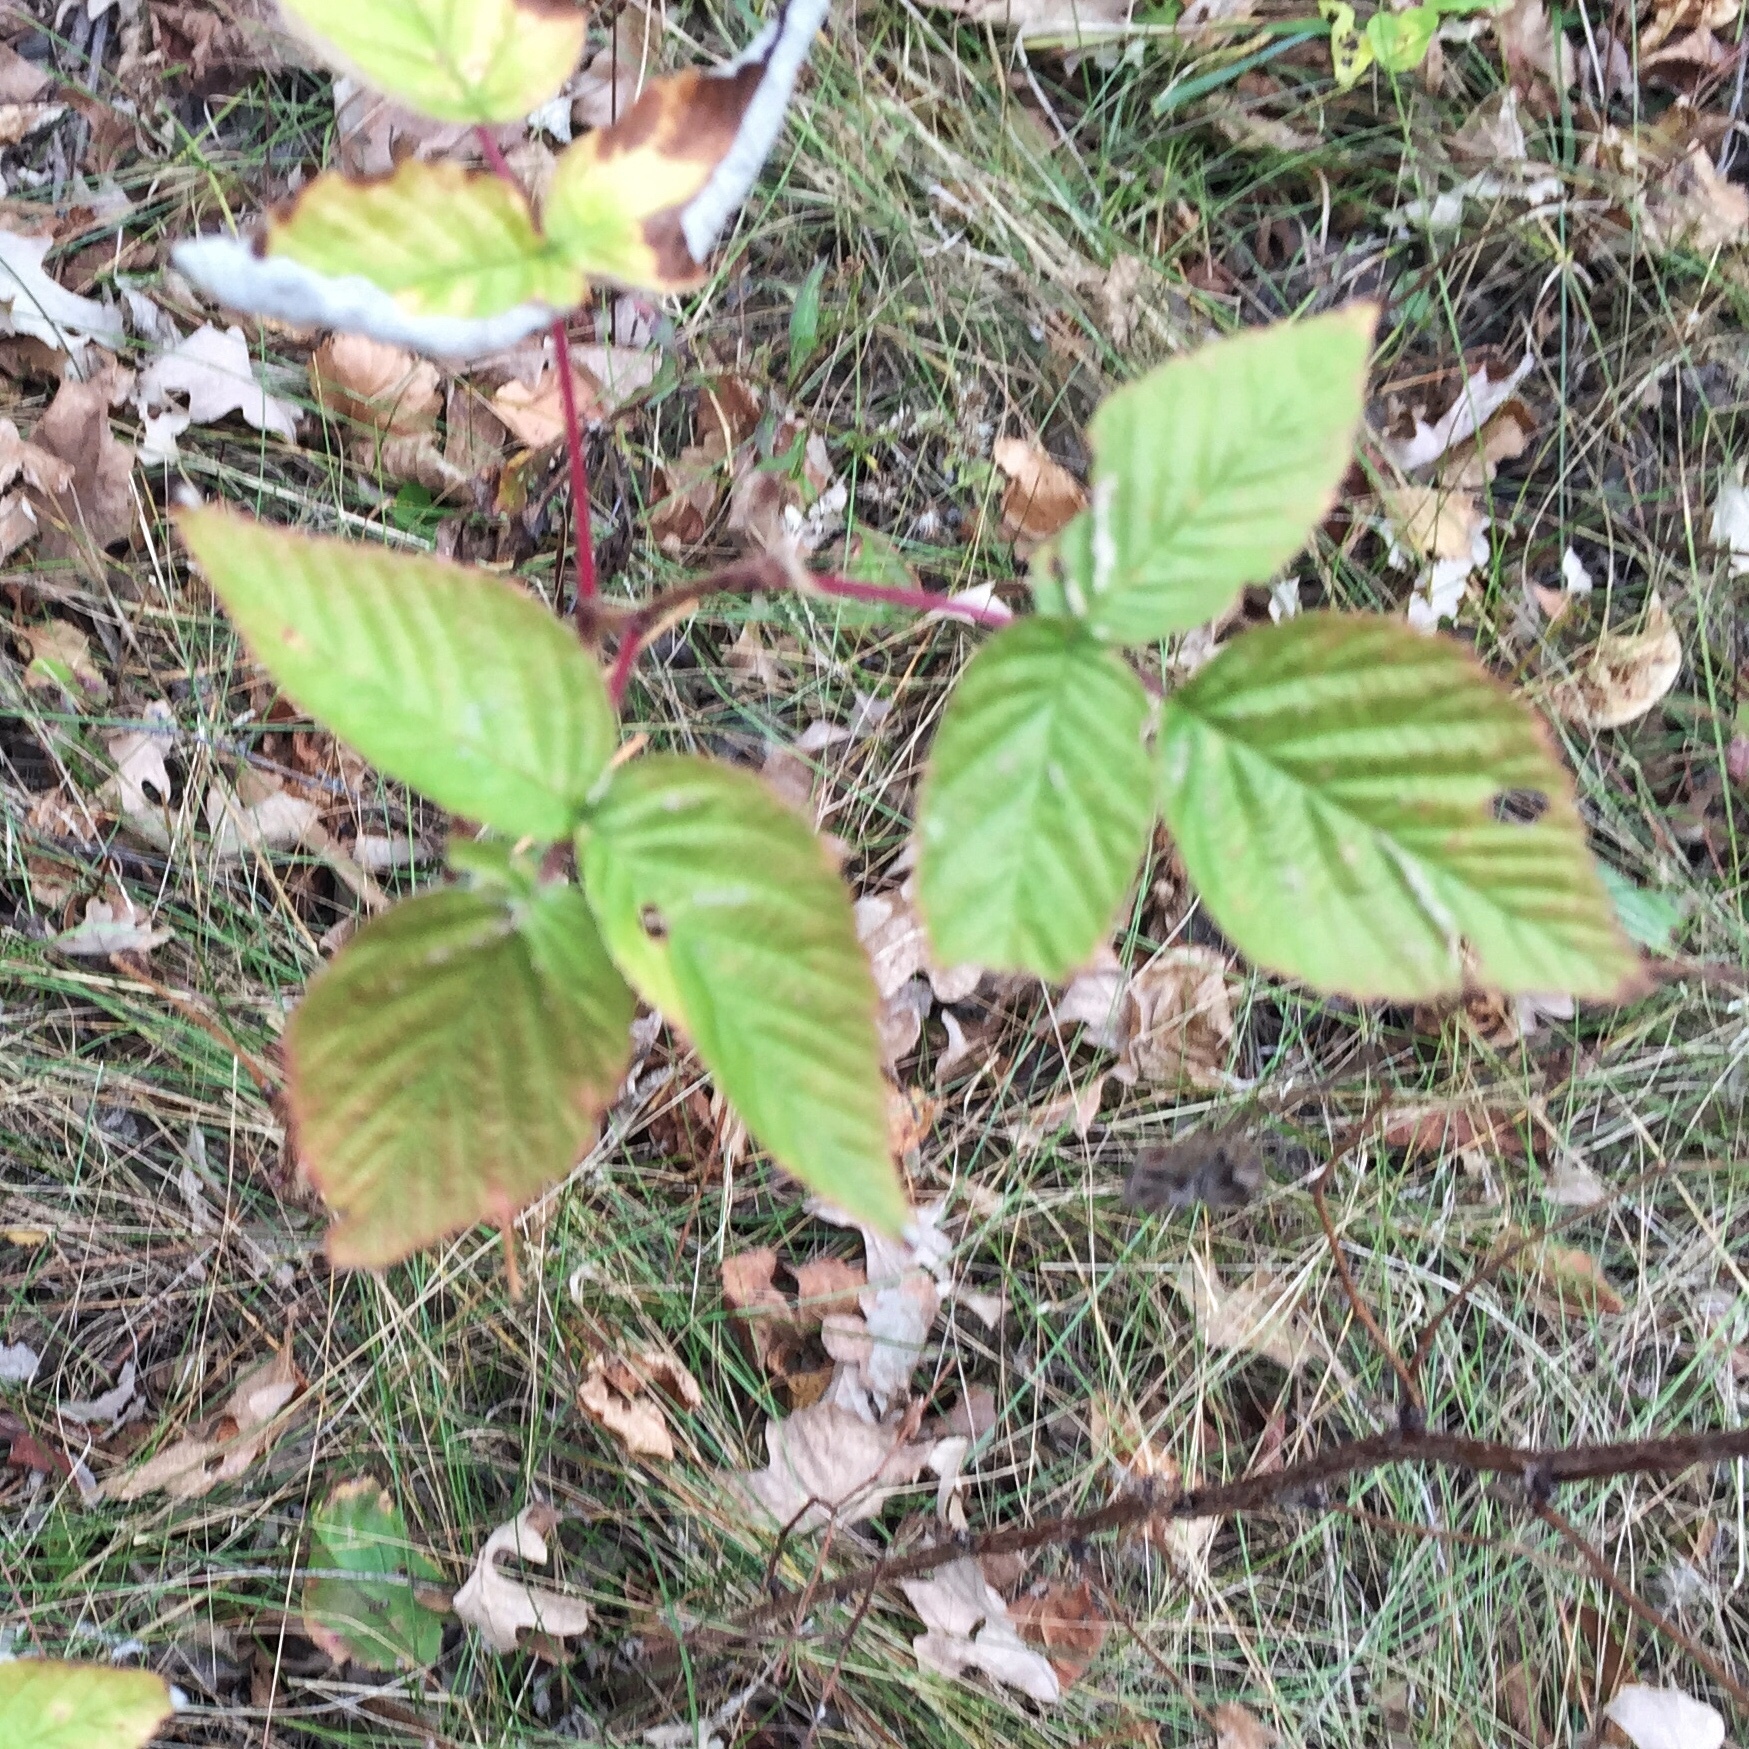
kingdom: Plantae
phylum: Tracheophyta
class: Magnoliopsida
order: Rosales
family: Rosaceae
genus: Rubus
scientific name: Rubus idaeus
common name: Raspberry
